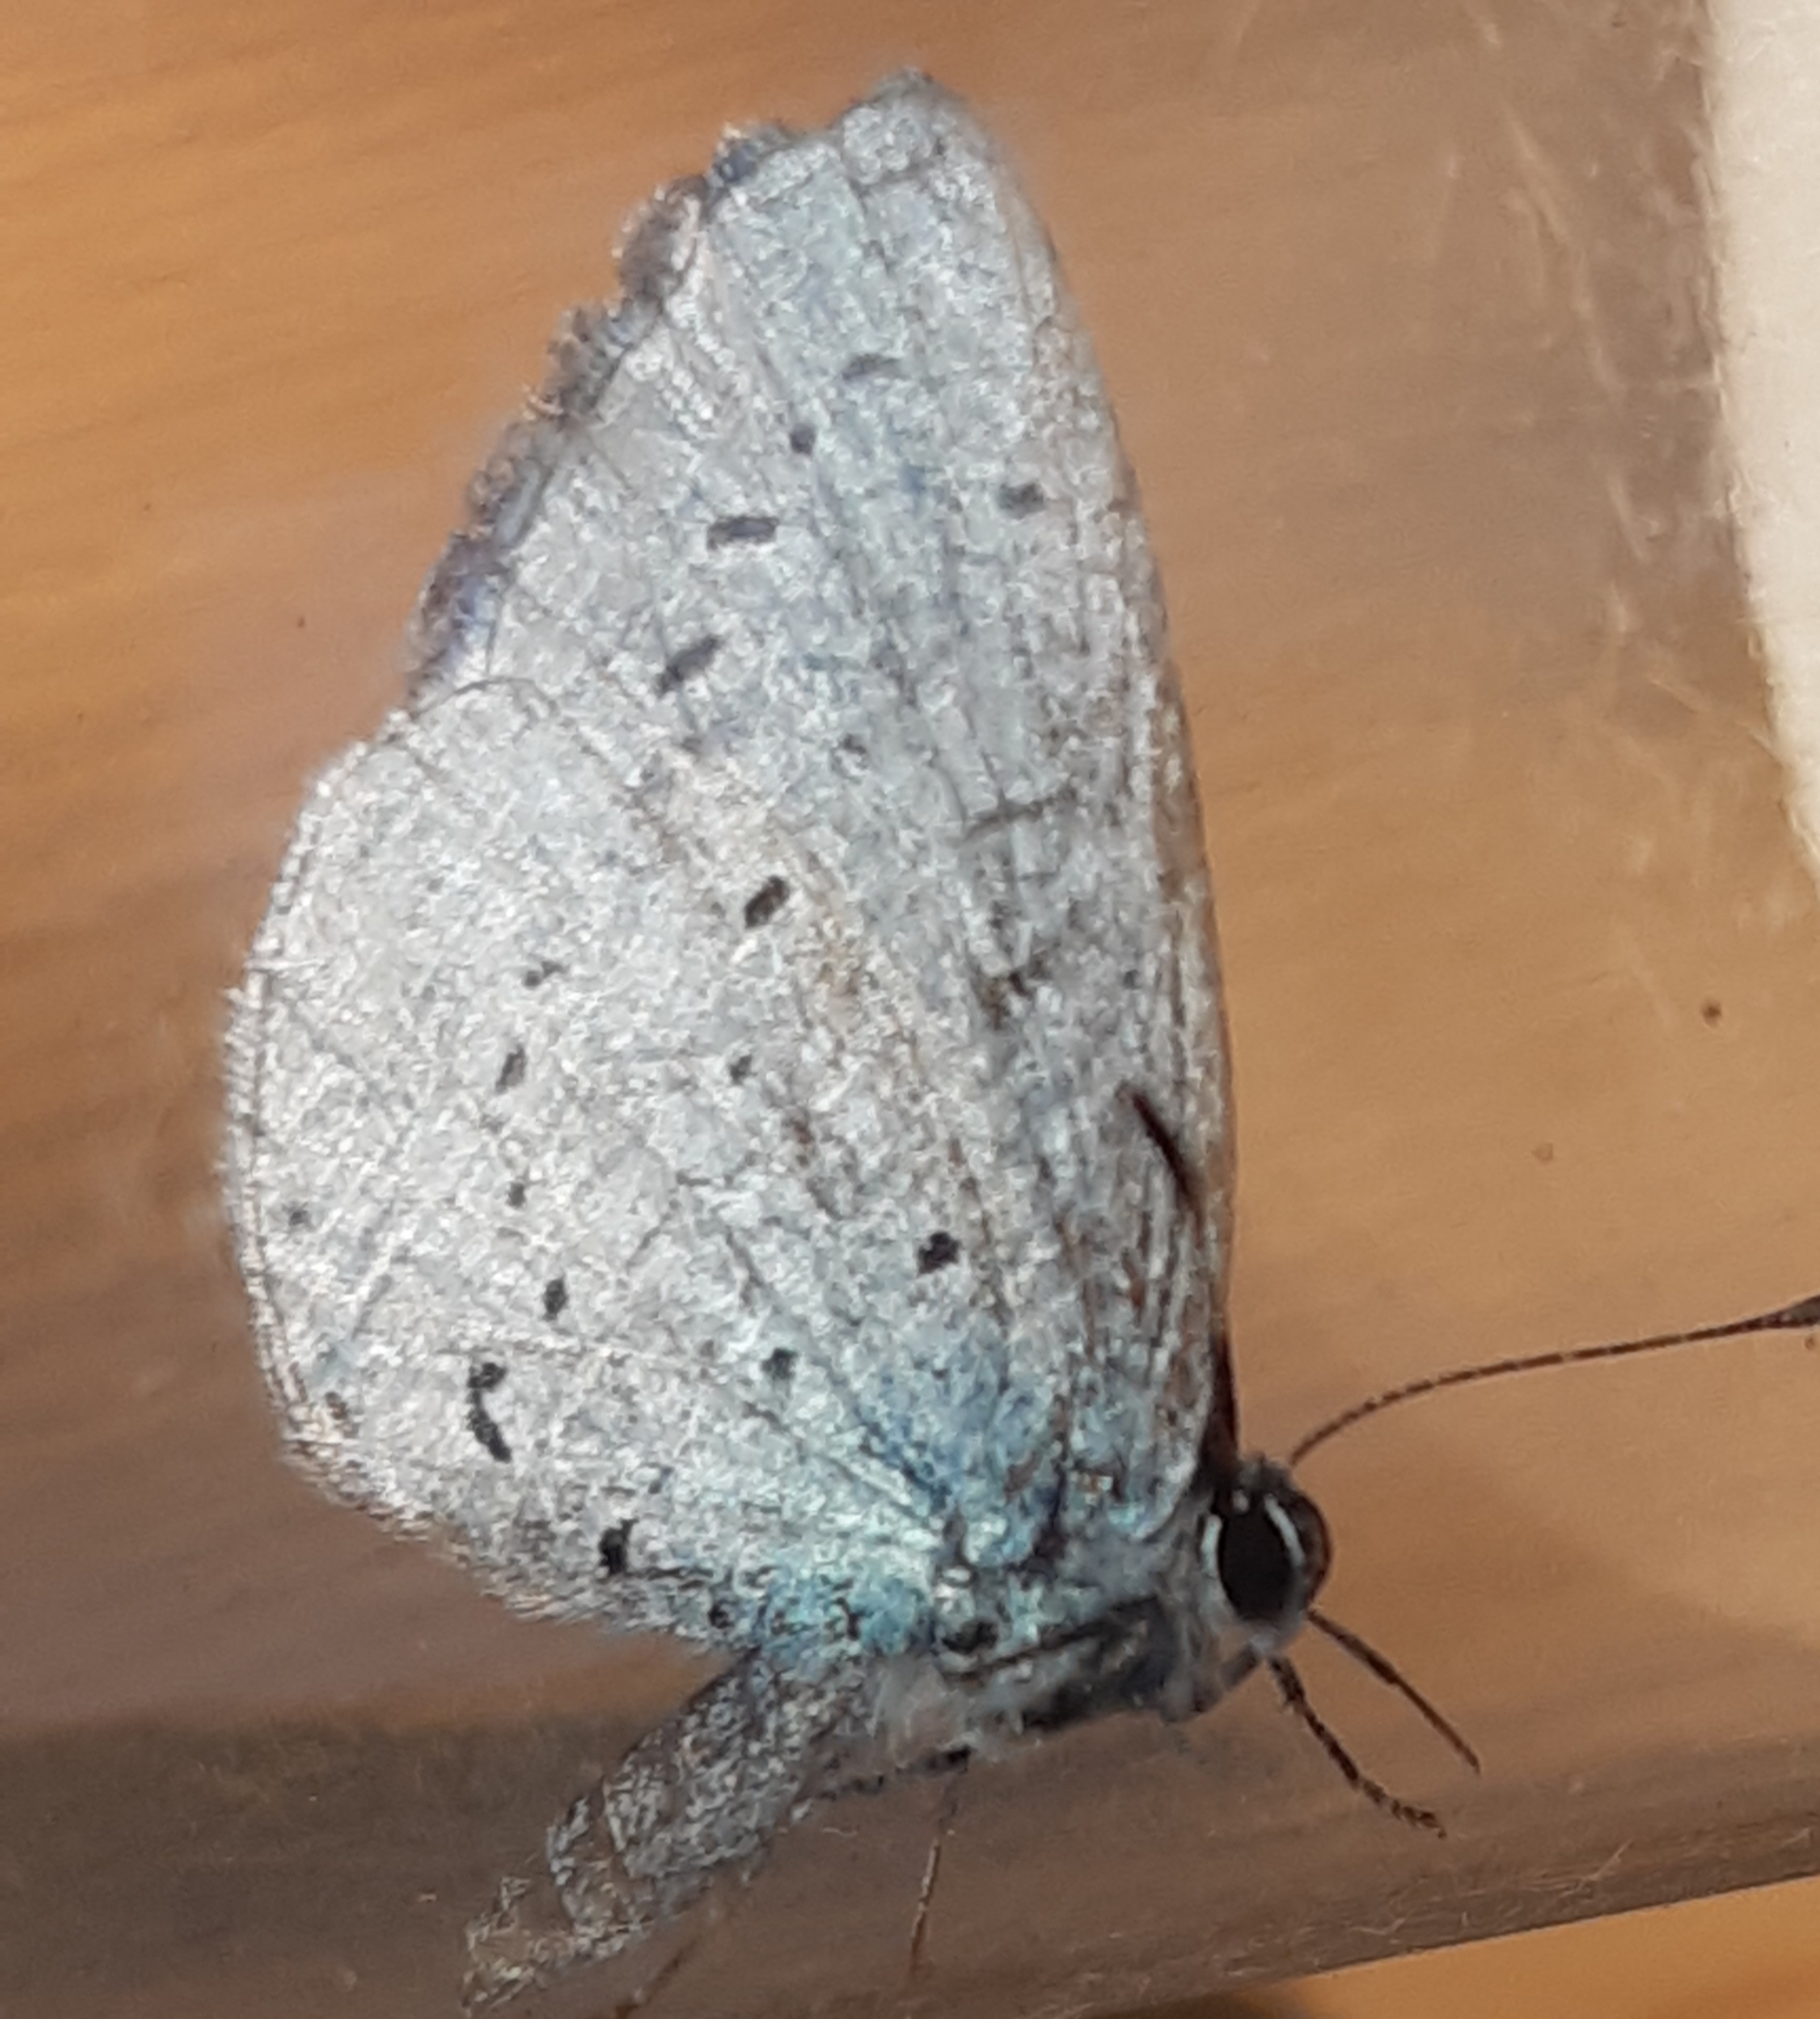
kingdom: Animalia
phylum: Arthropoda
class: Insecta
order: Lepidoptera
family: Lycaenidae
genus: Celastrina
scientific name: Celastrina argiolus
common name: Holly blue
